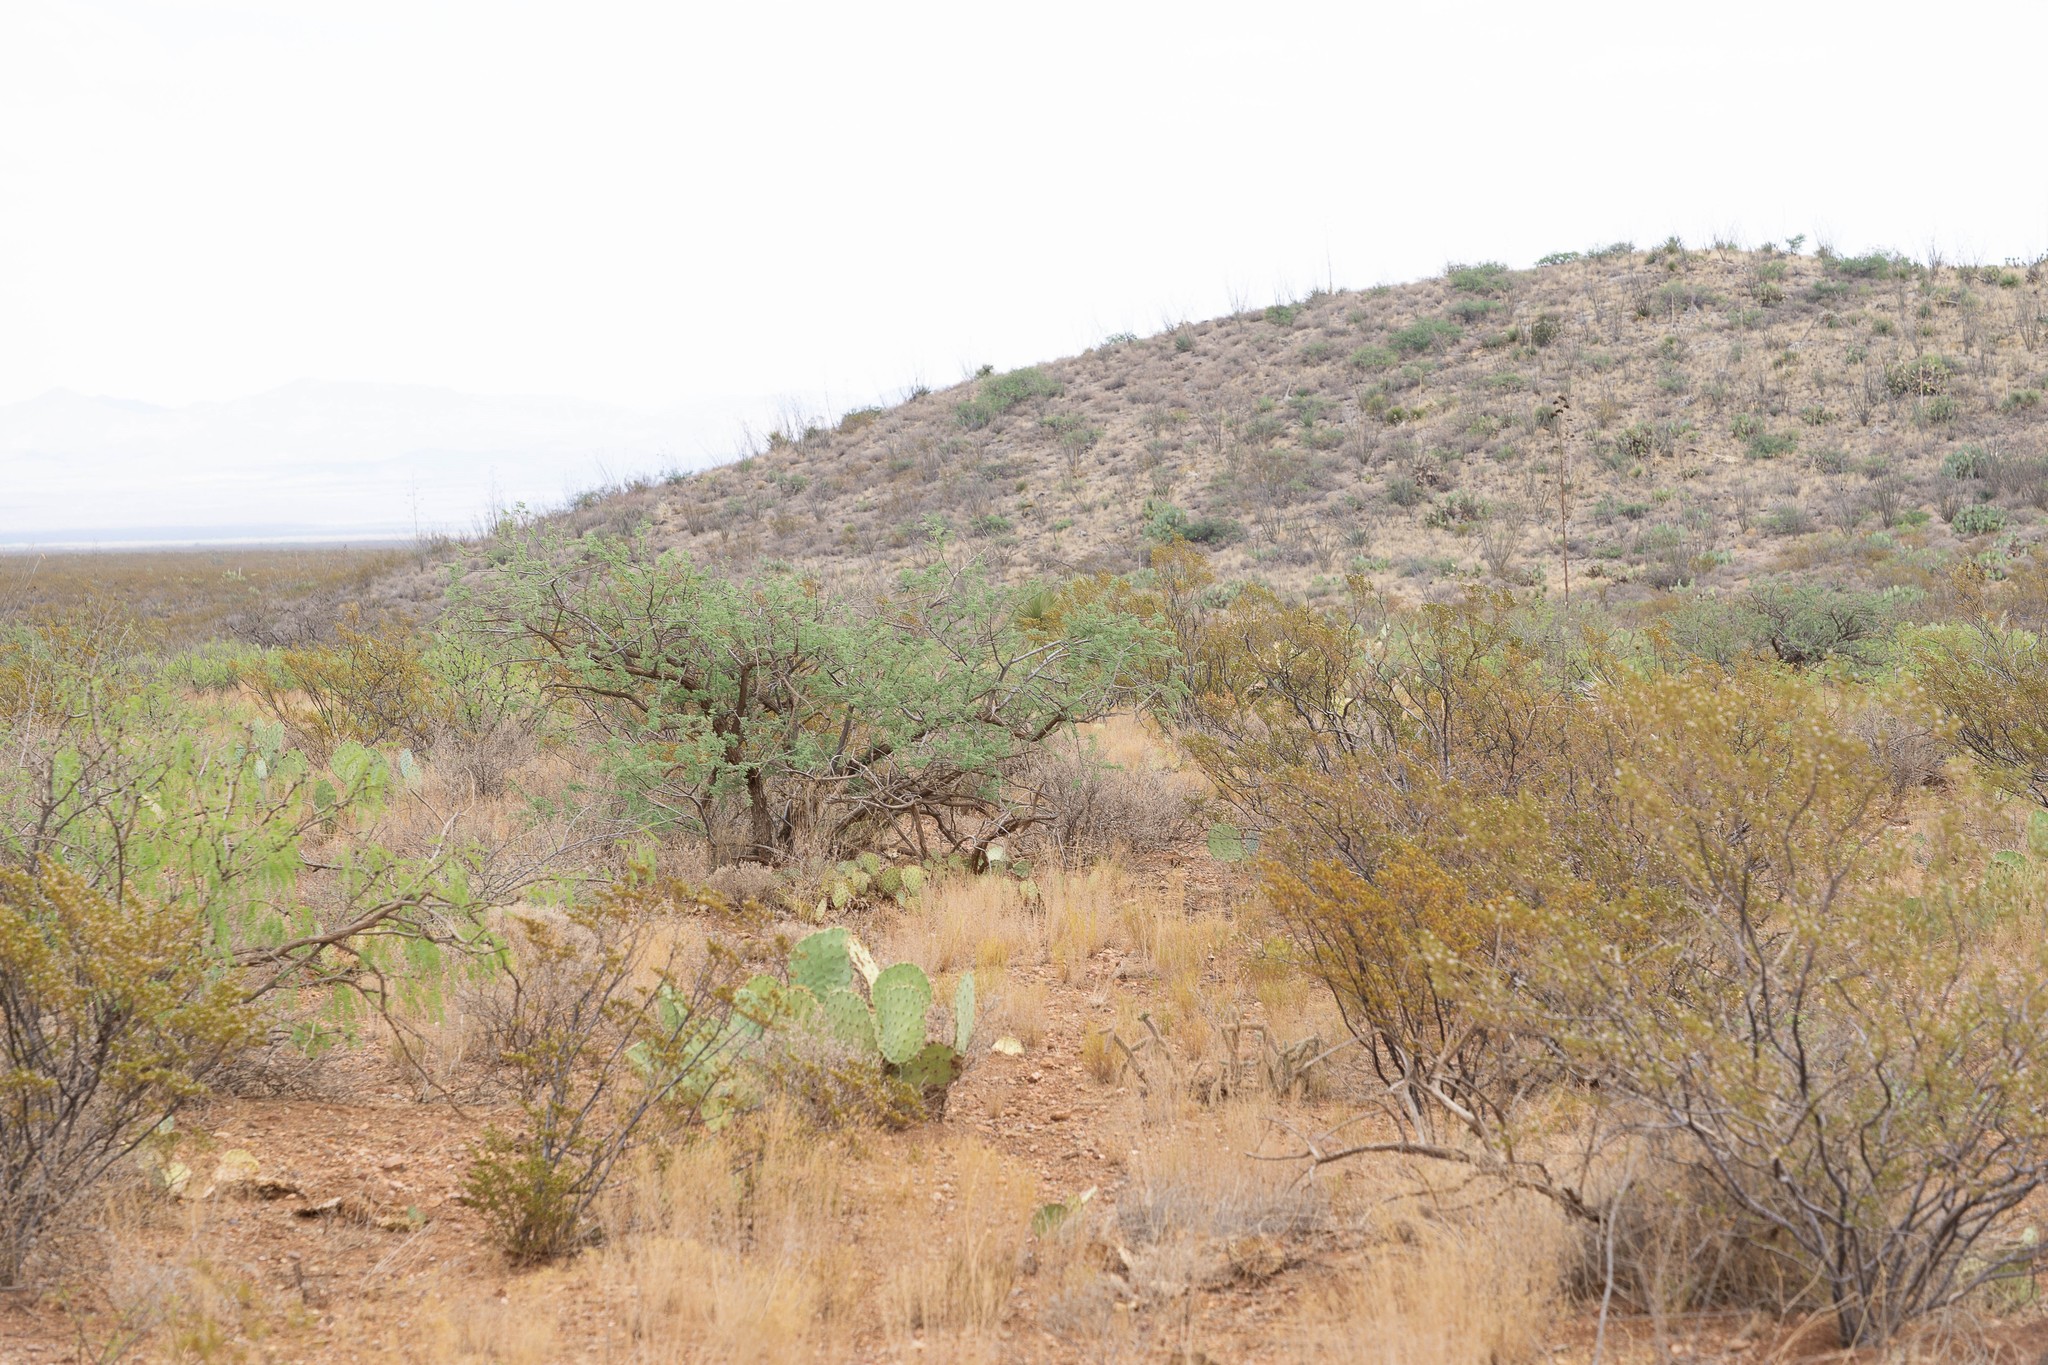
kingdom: Animalia
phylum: Arthropoda
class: Insecta
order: Hymenoptera
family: Formicidae
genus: Pogonomyrmex
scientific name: Pogonomyrmex desertorum
